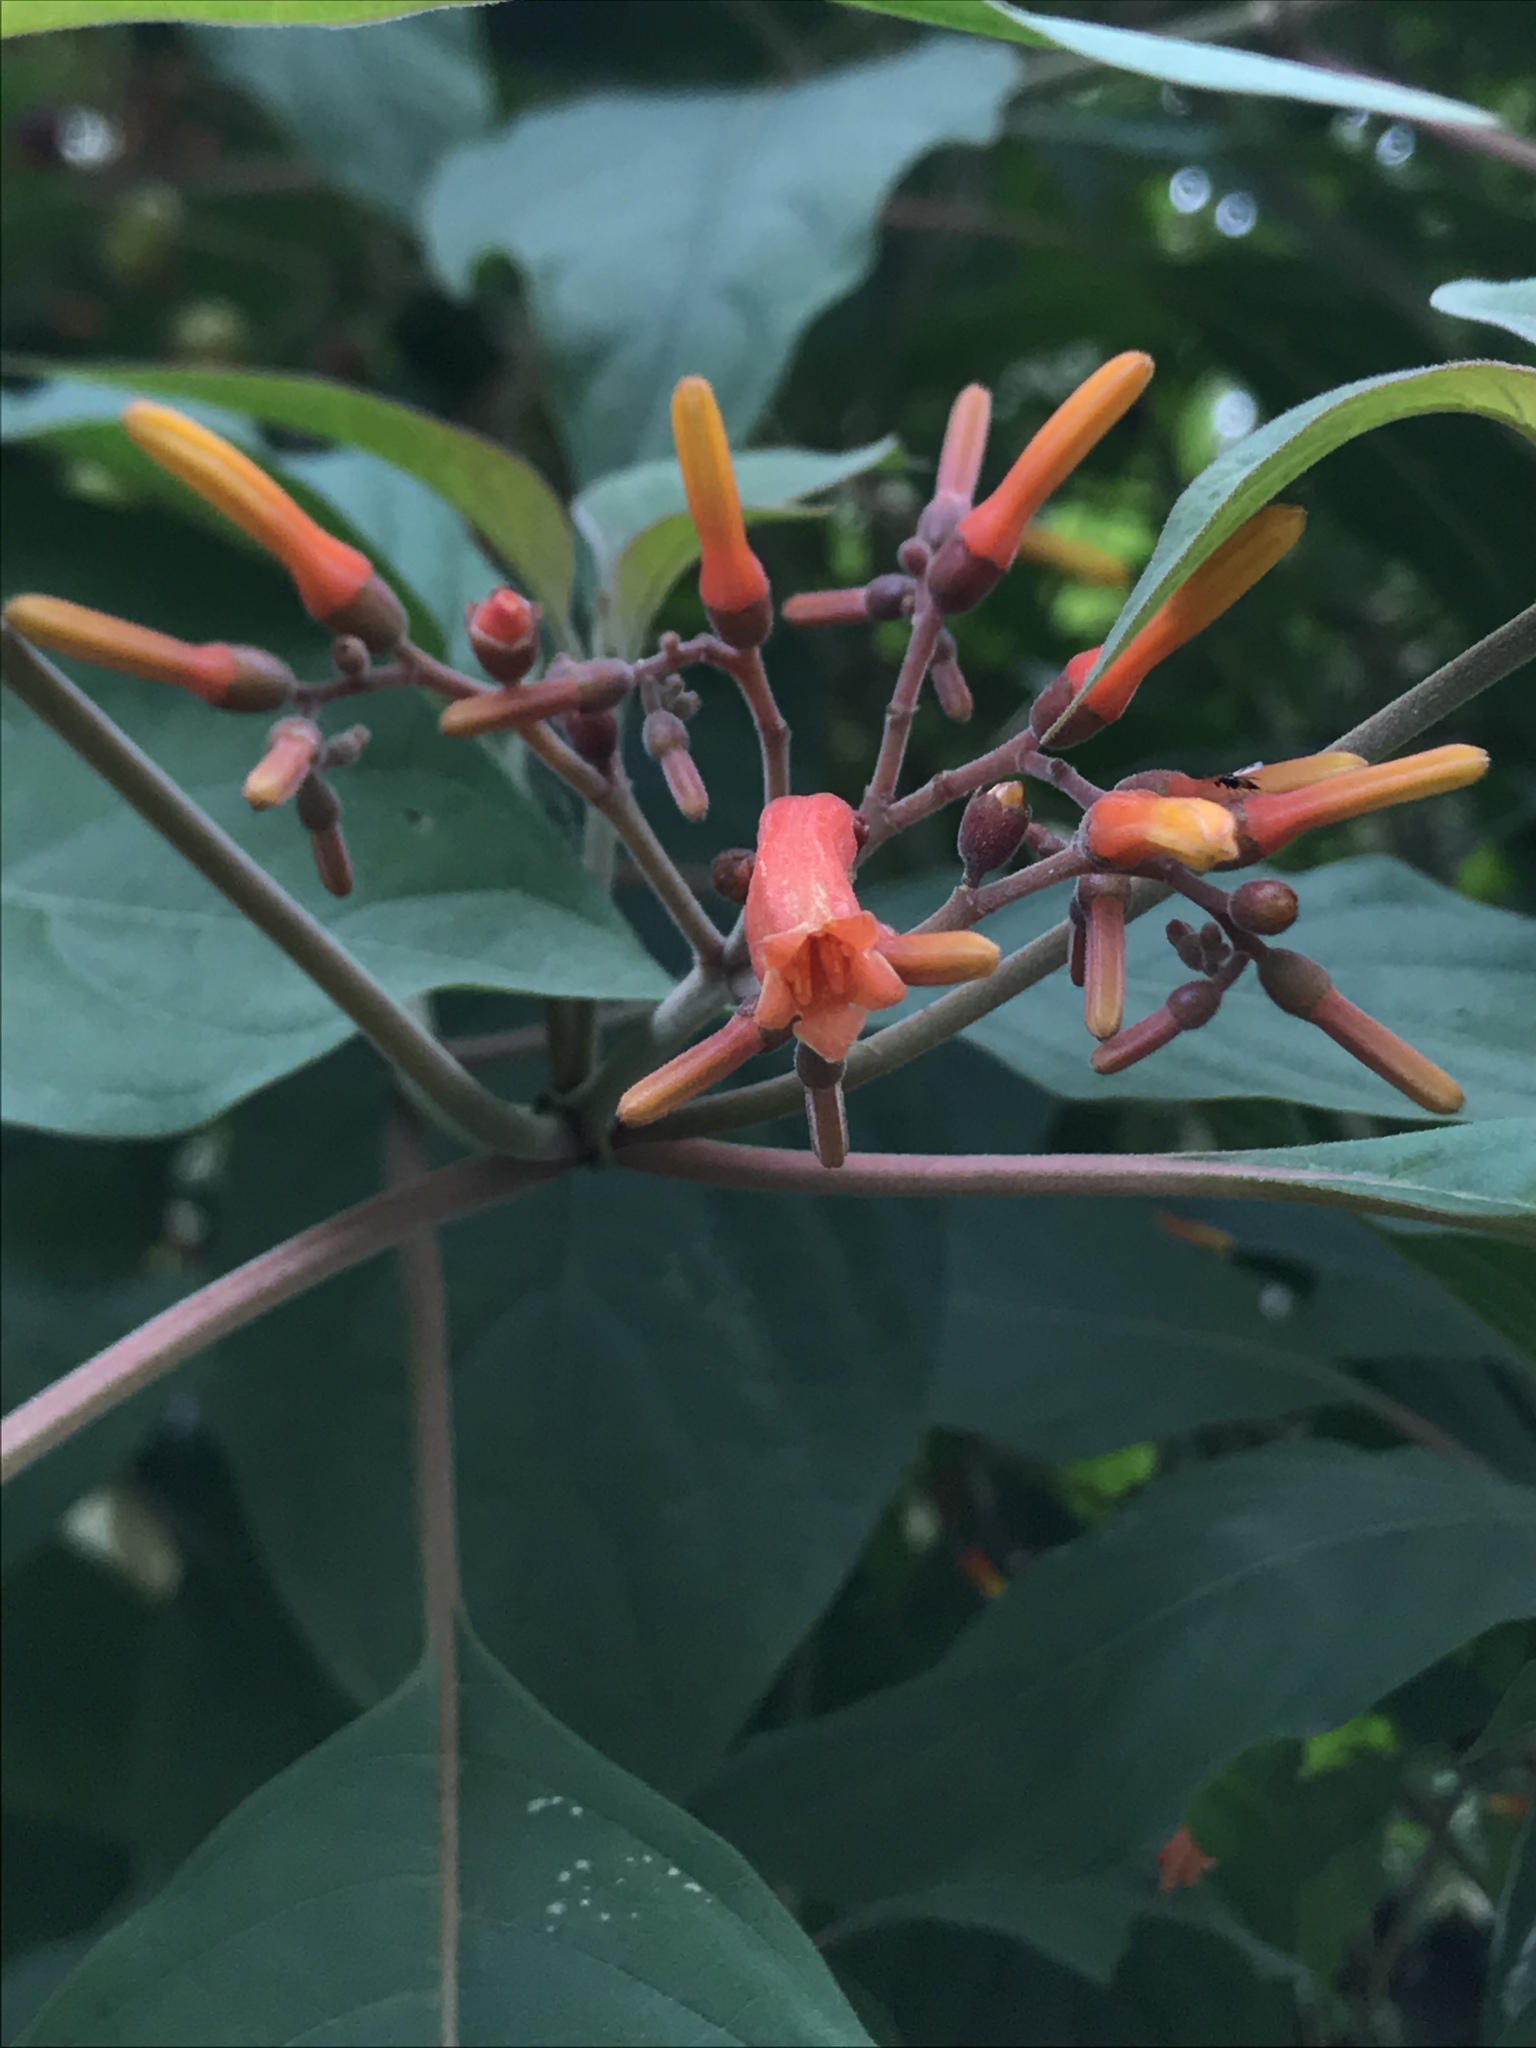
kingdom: Plantae
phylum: Tracheophyta
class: Magnoliopsida
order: Gentianales
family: Rubiaceae
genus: Hamelia
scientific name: Hamelia patens
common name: Redhead
